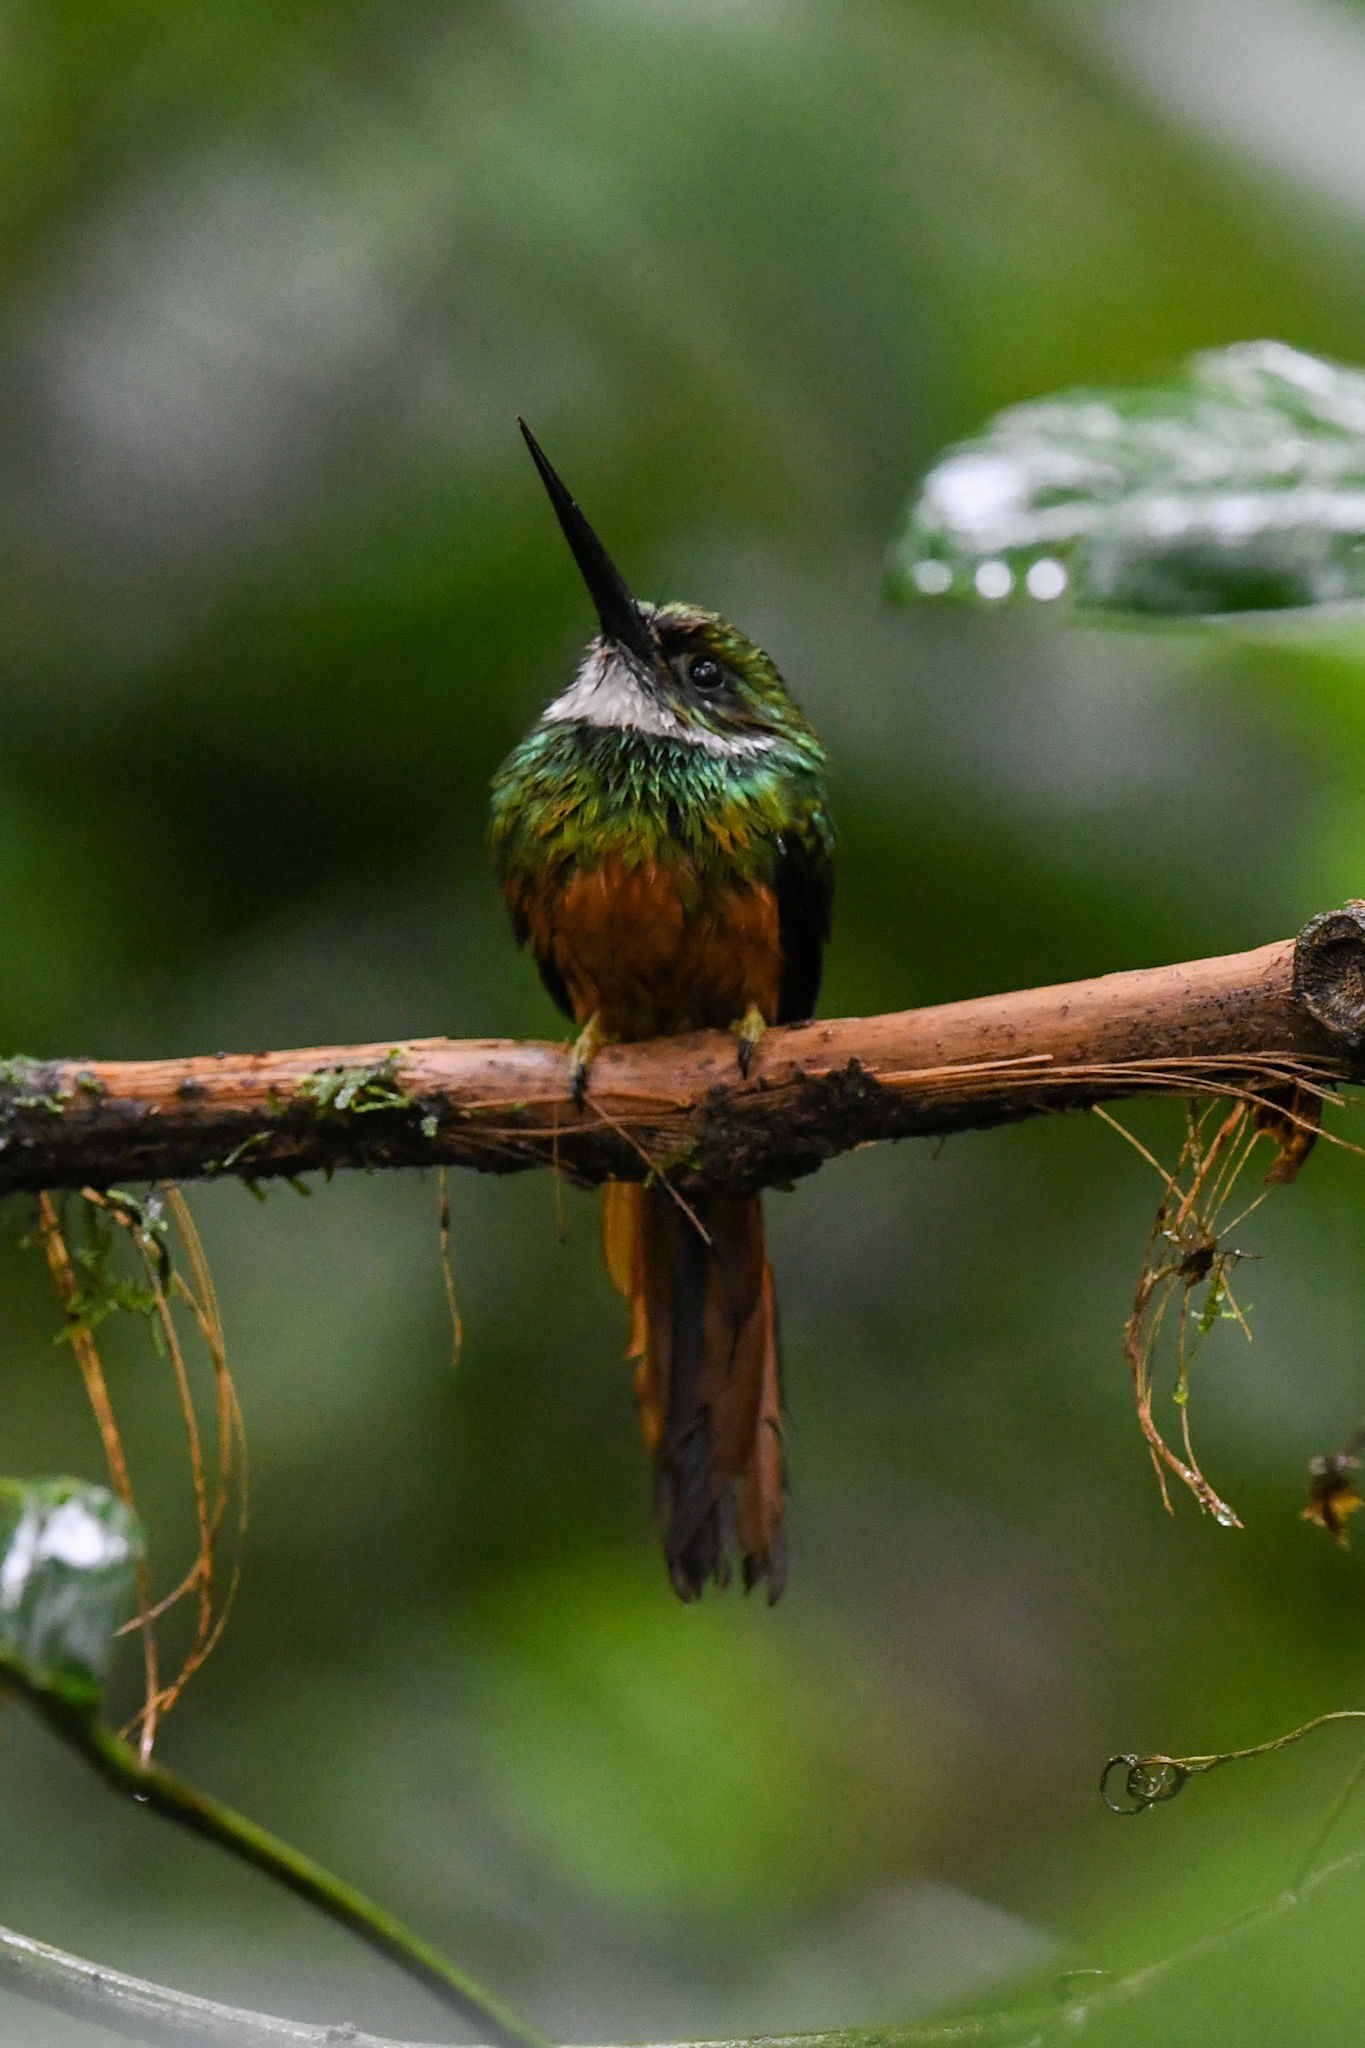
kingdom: Animalia
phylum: Chordata
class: Aves
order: Piciformes
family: Galbulidae
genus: Galbula
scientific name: Galbula ruficauda
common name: Rufous-tailed jacamar
